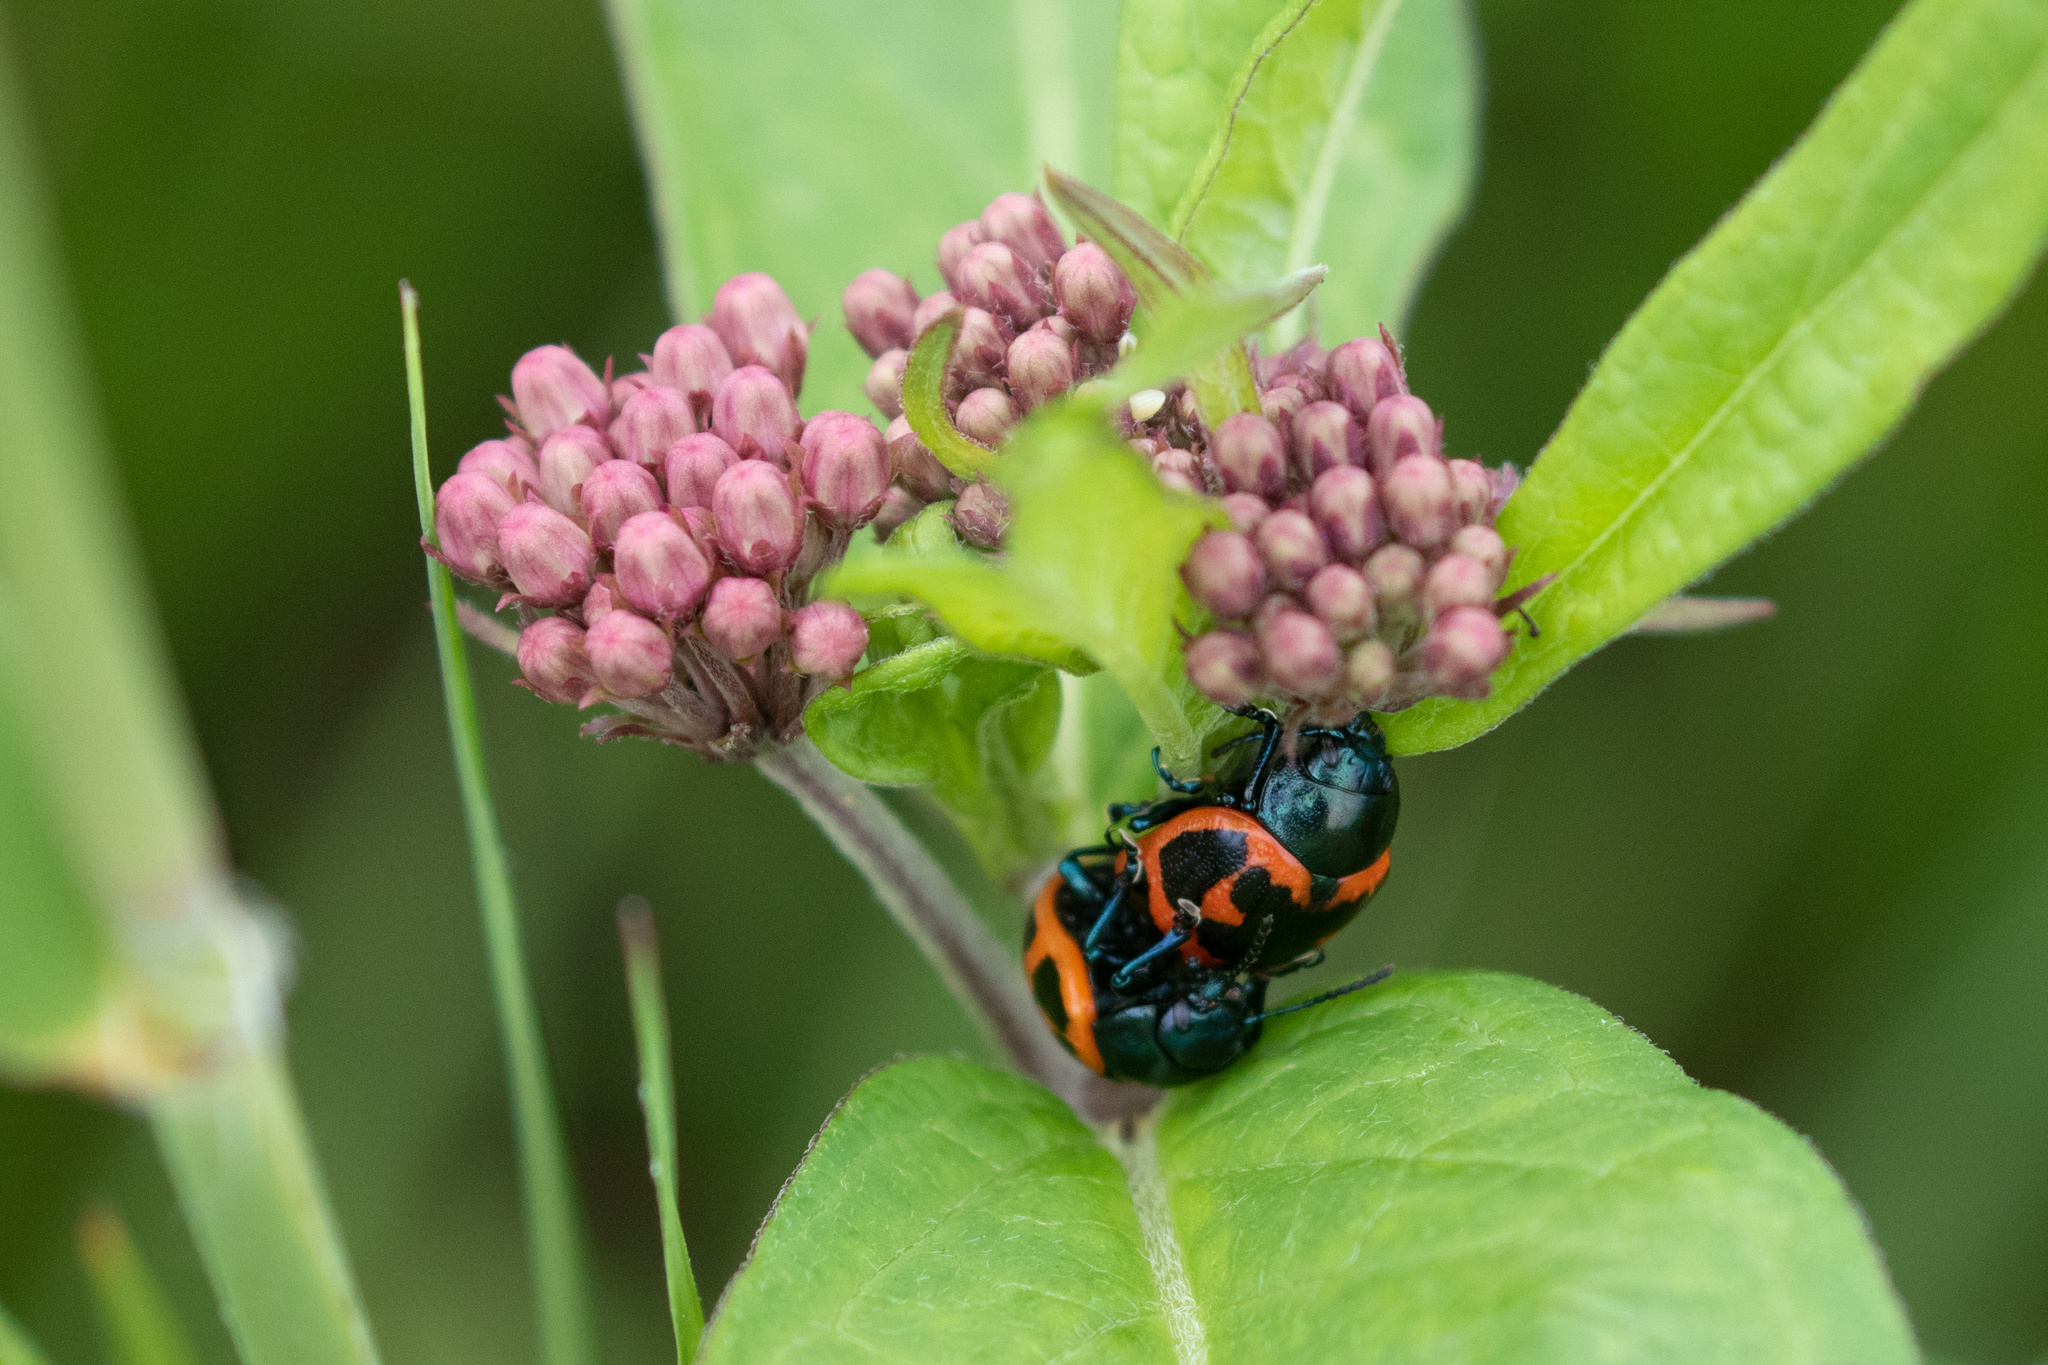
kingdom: Animalia
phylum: Arthropoda
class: Insecta
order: Coleoptera
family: Chrysomelidae
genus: Labidomera
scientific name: Labidomera clivicollis
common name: Swamp milkweed leaf beetle
